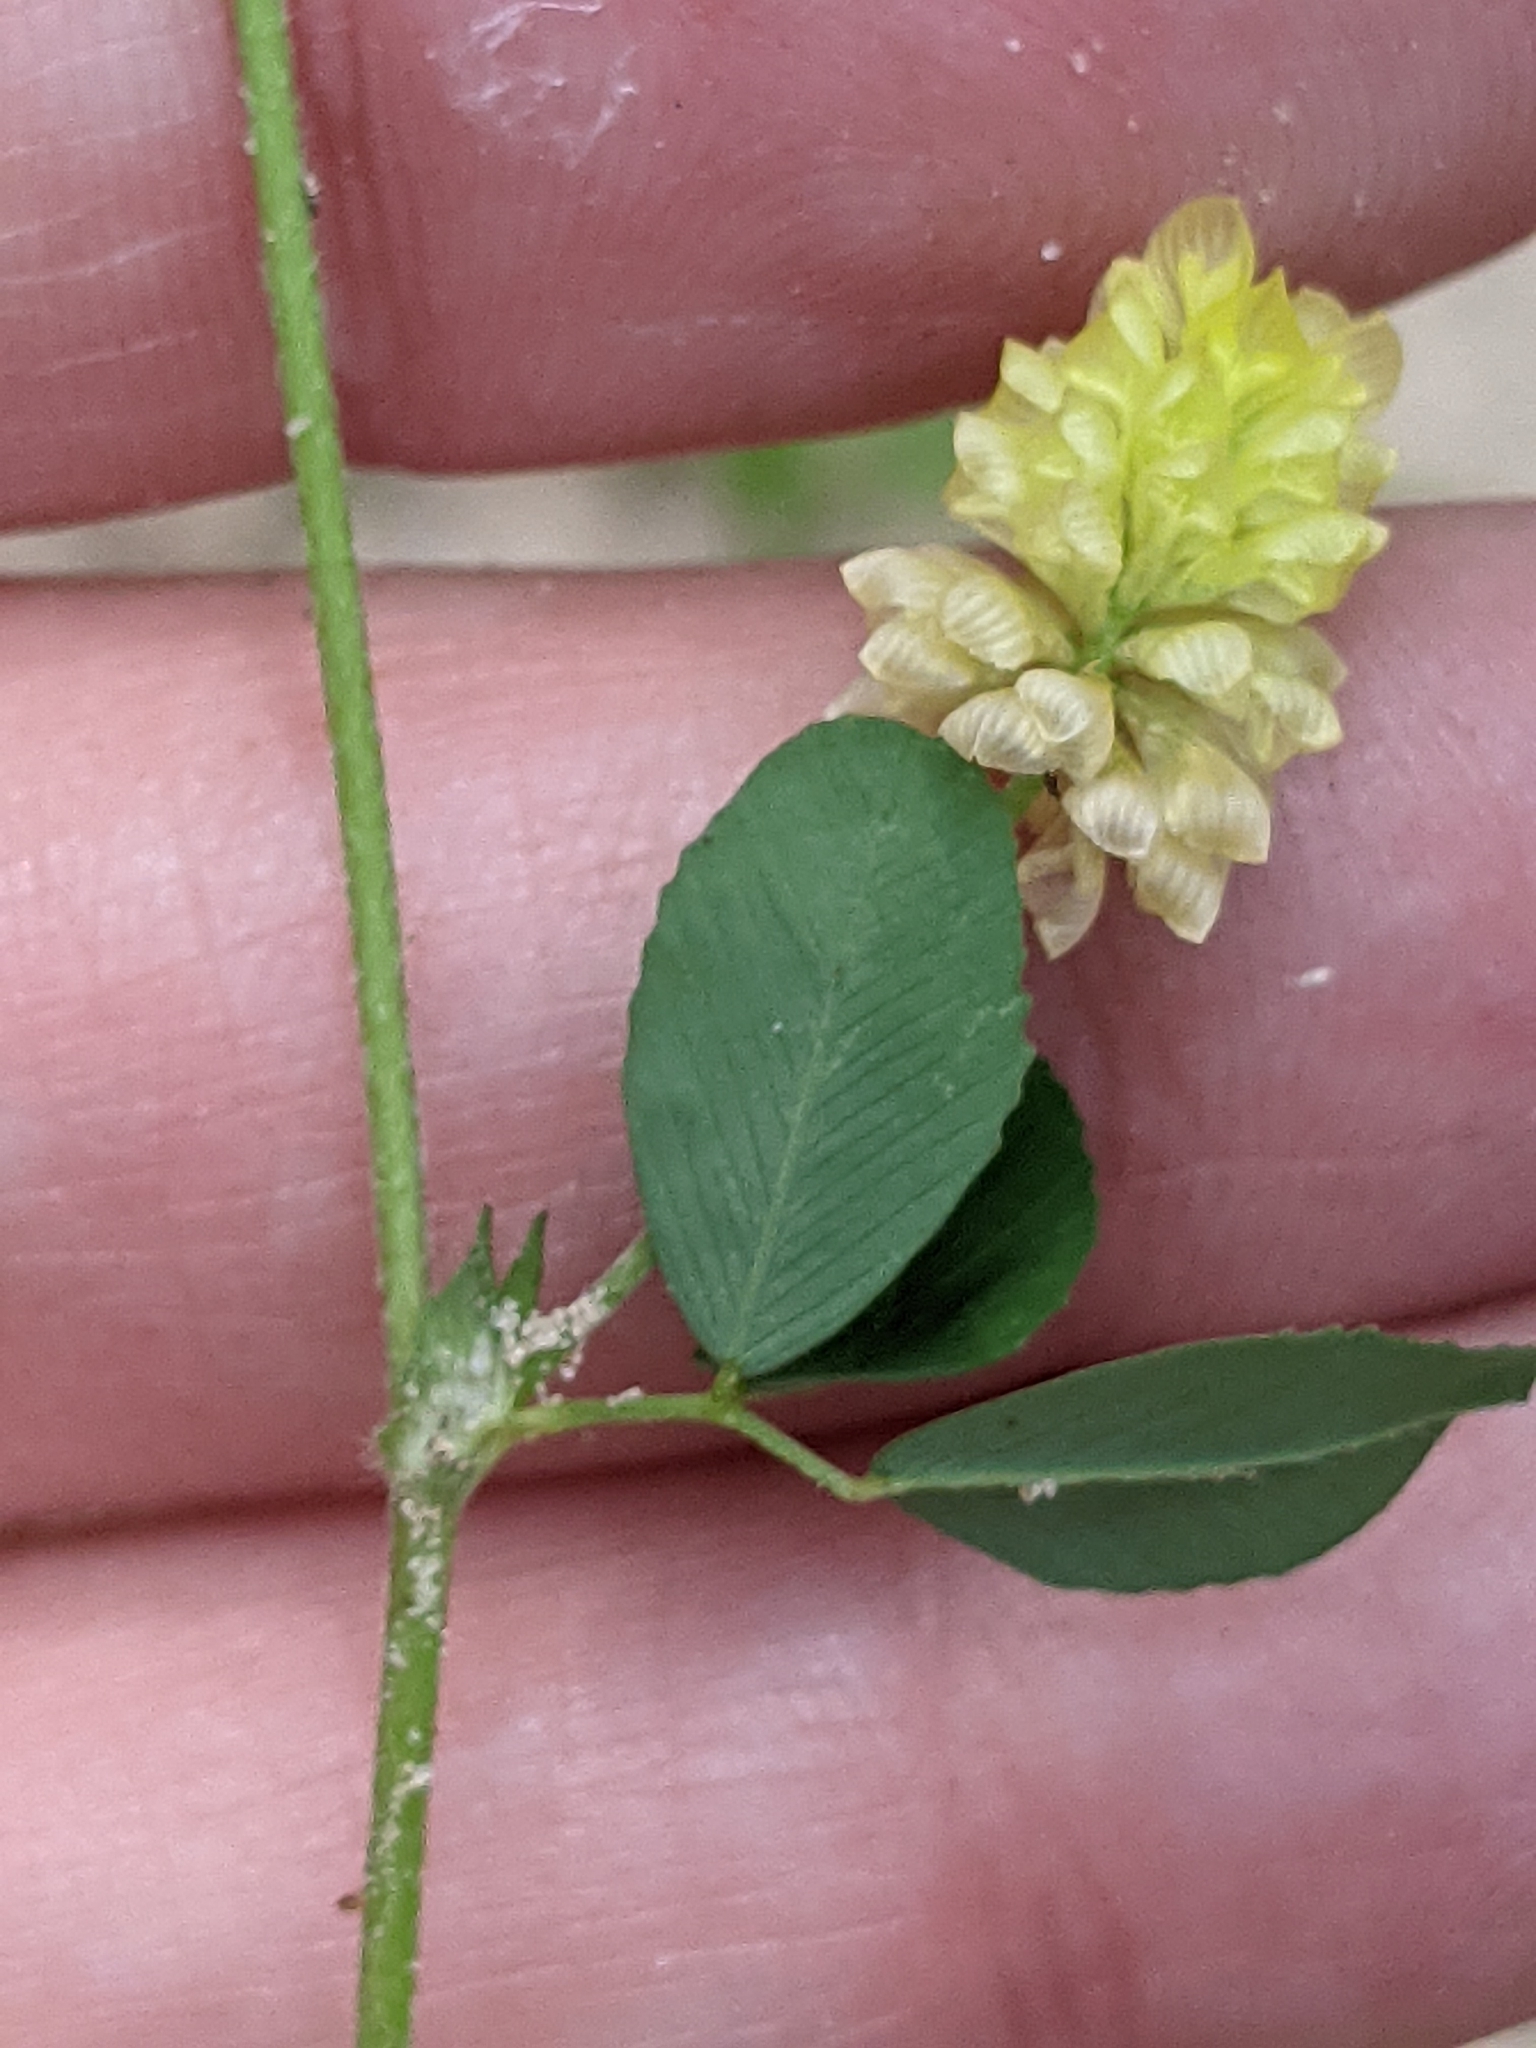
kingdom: Plantae
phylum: Tracheophyta
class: Magnoliopsida
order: Fabales
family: Fabaceae
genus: Trifolium
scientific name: Trifolium campestre
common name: Field clover
